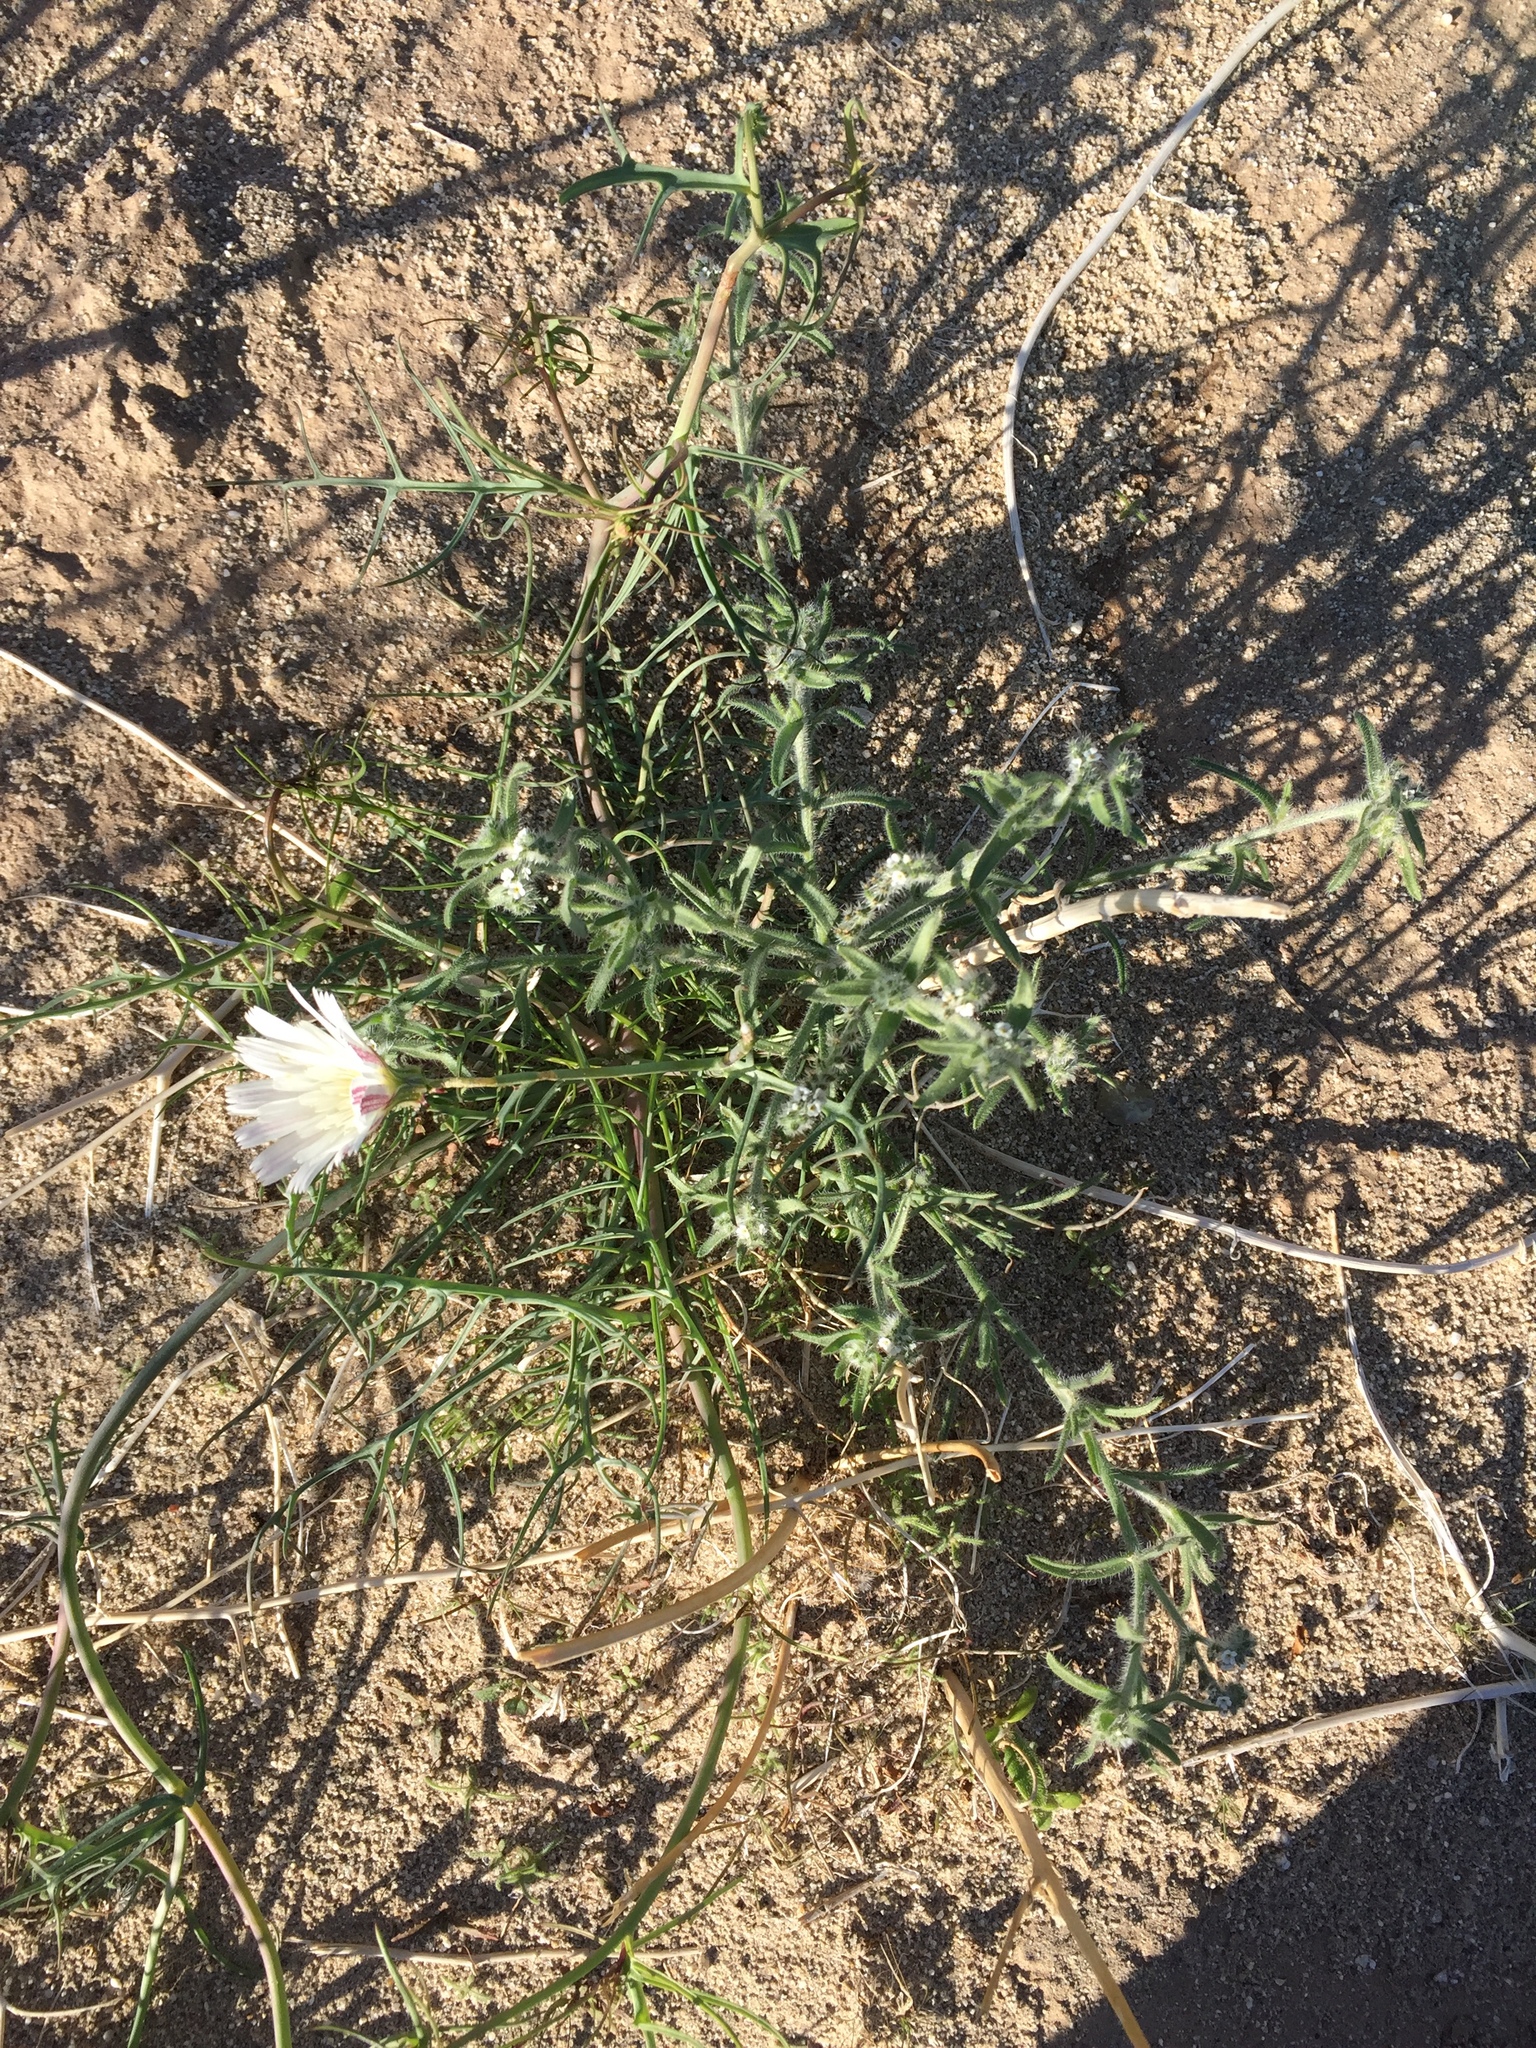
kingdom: Plantae
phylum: Tracheophyta
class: Magnoliopsida
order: Asterales
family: Asteraceae
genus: Calycoseris
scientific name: Calycoseris wrightii
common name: White tackstem
